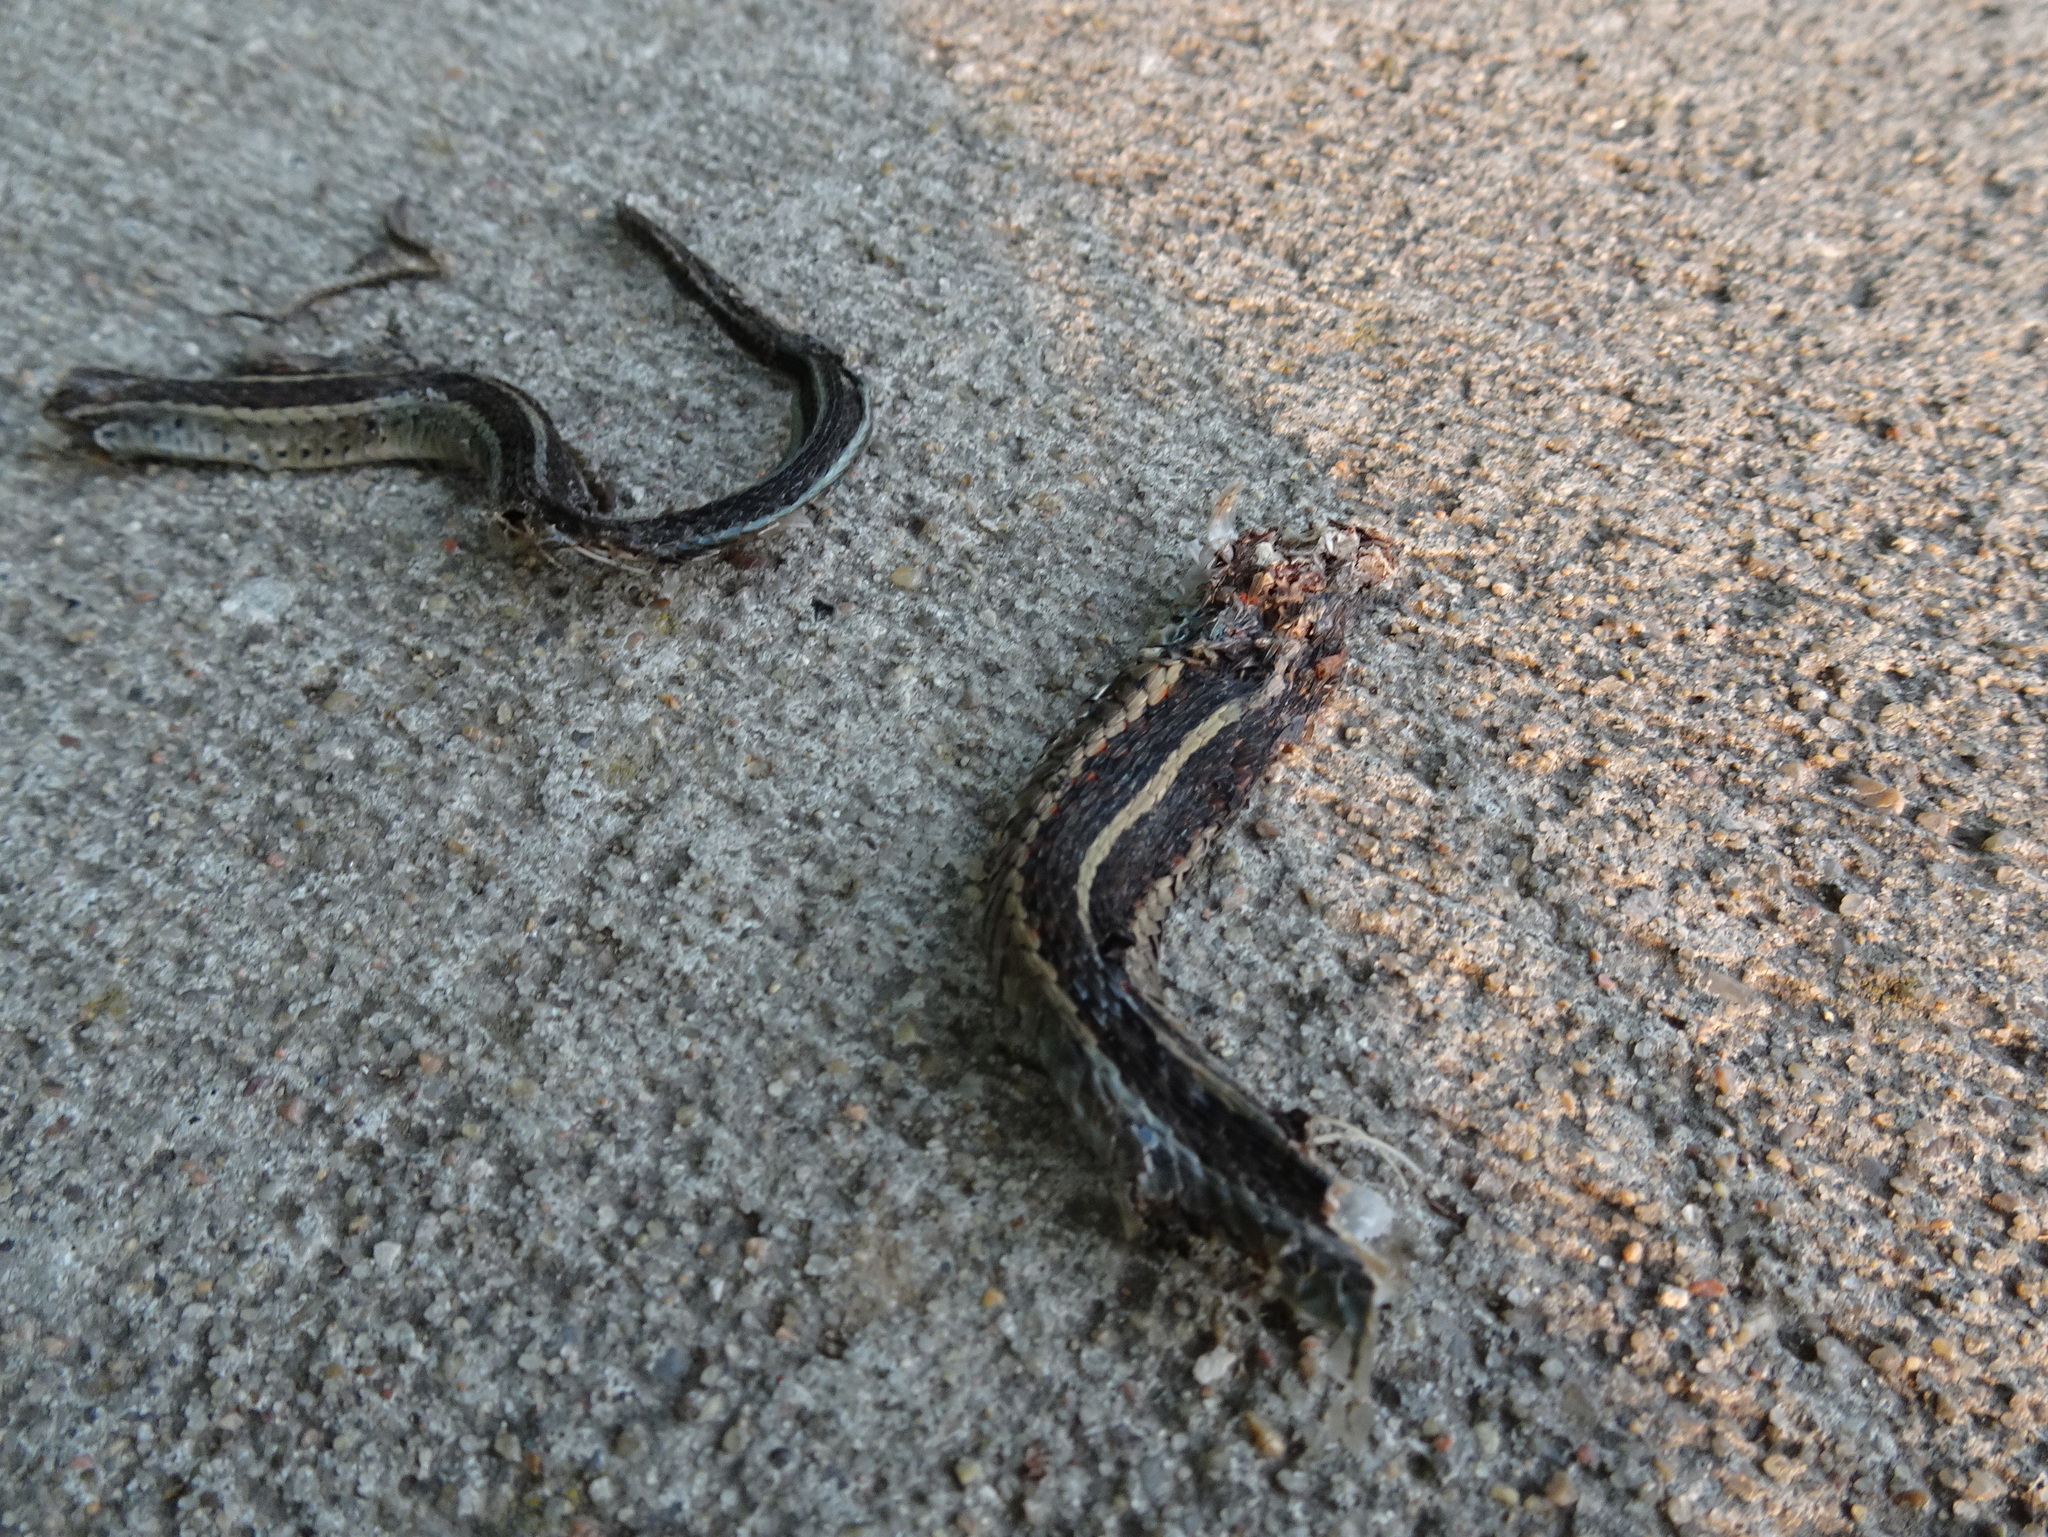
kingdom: Animalia
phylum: Chordata
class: Squamata
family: Colubridae
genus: Thamnophis
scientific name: Thamnophis sirtalis
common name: Common garter snake
